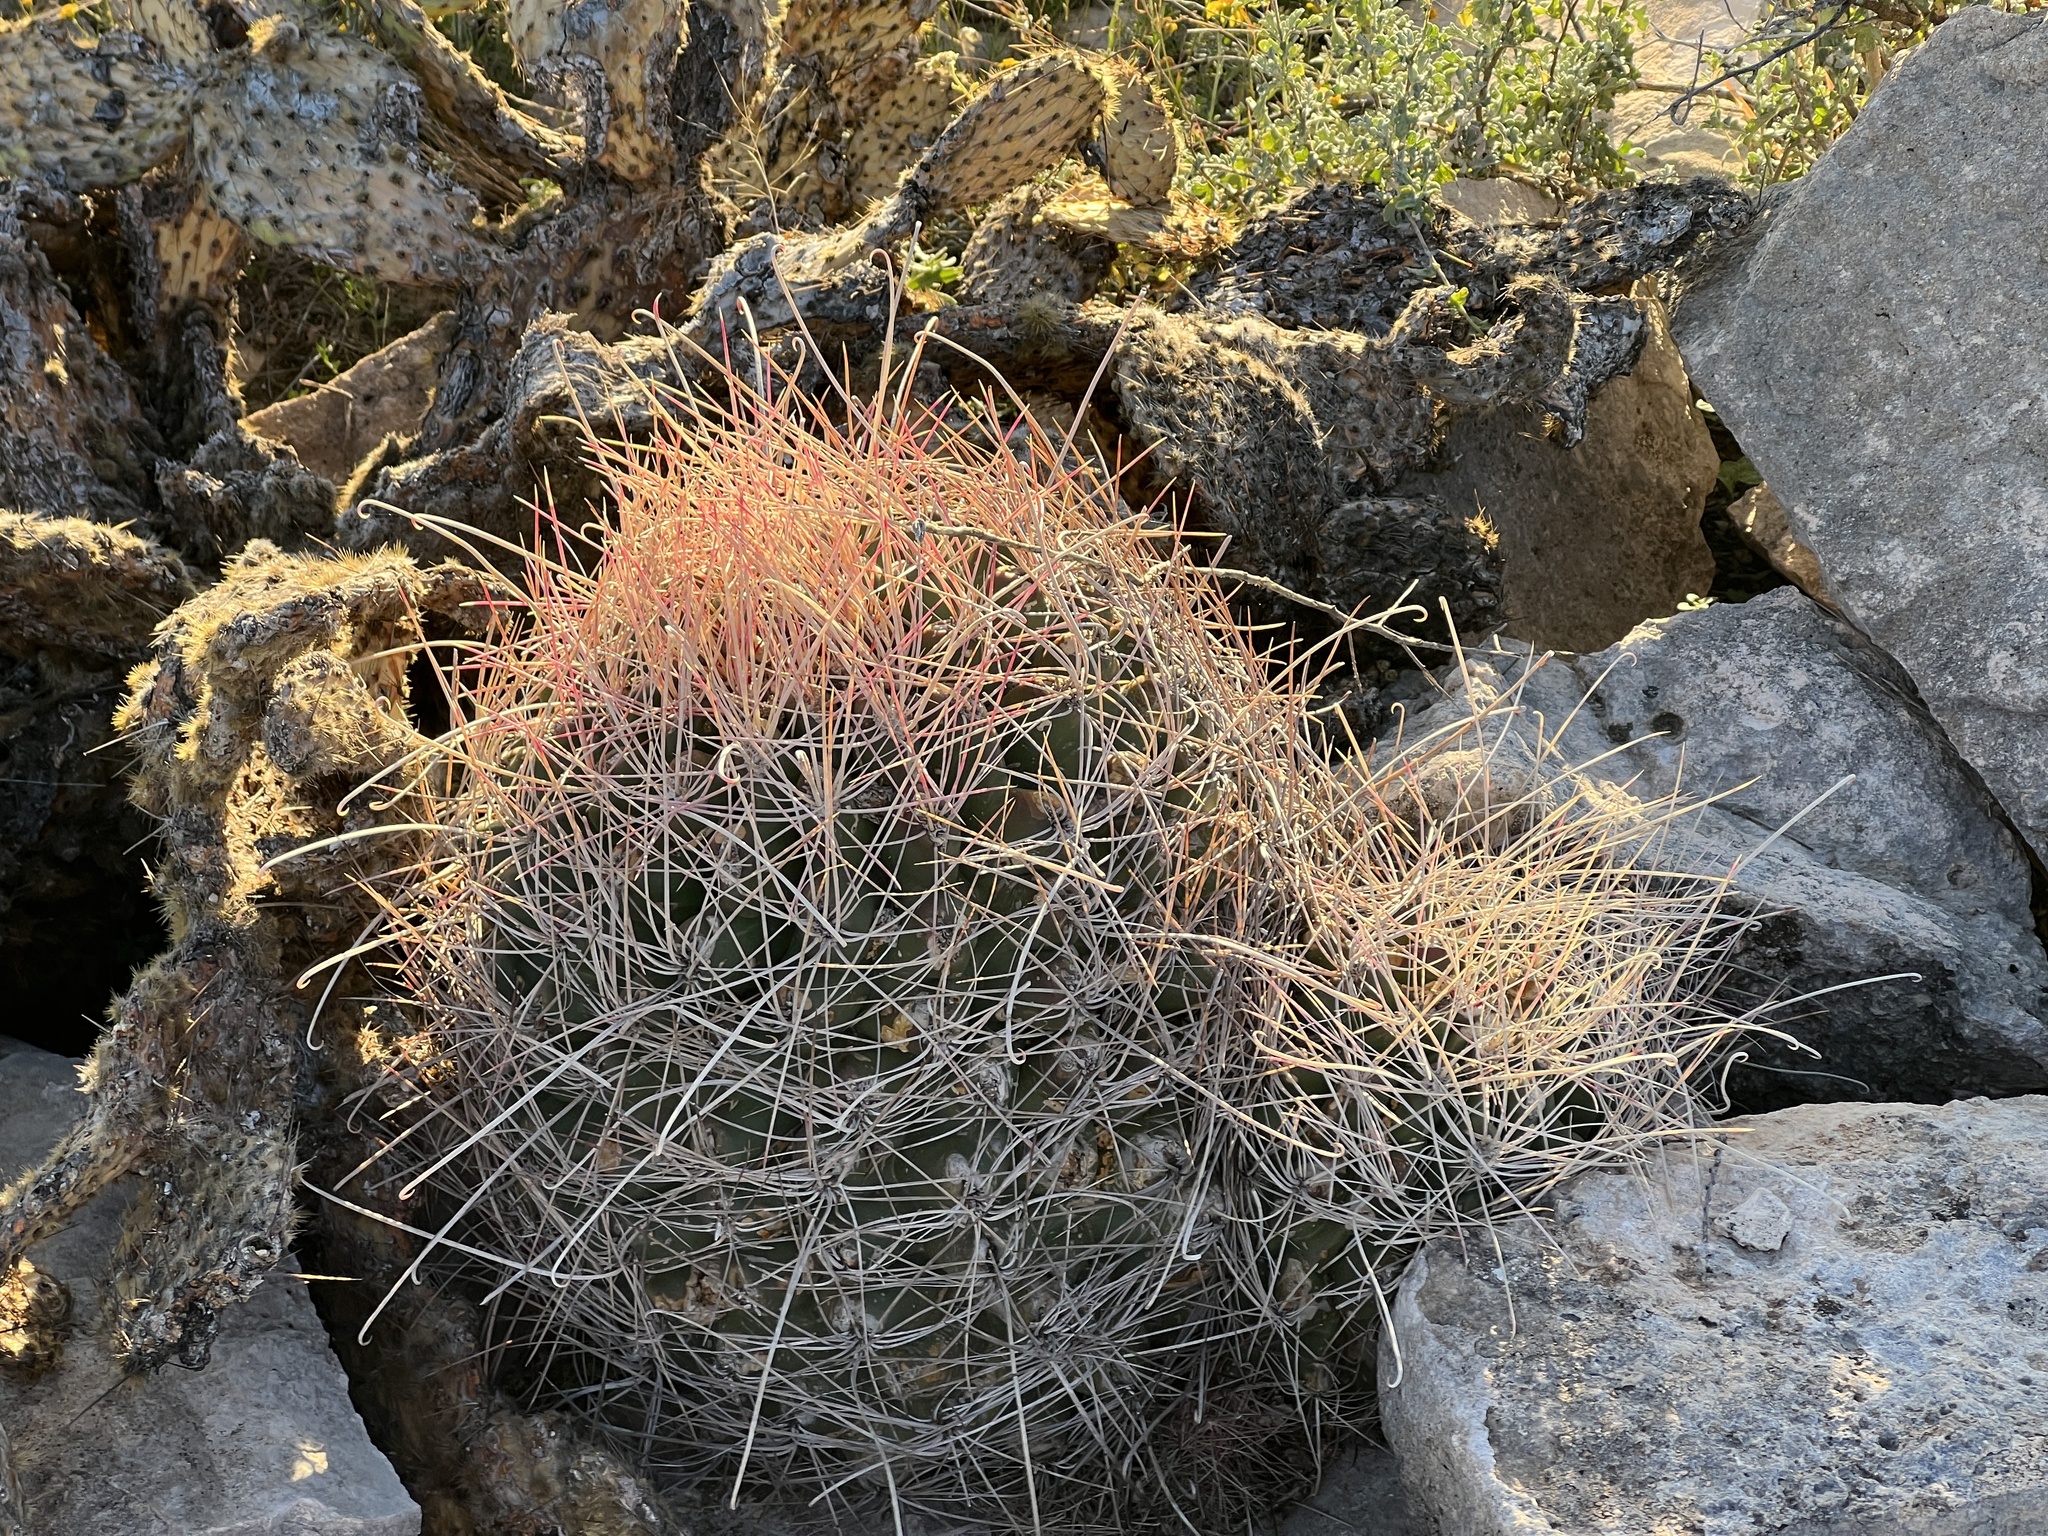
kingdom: Plantae
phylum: Tracheophyta
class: Magnoliopsida
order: Caryophyllales
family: Cactaceae
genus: Bisnaga
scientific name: Bisnaga hamatacantha
